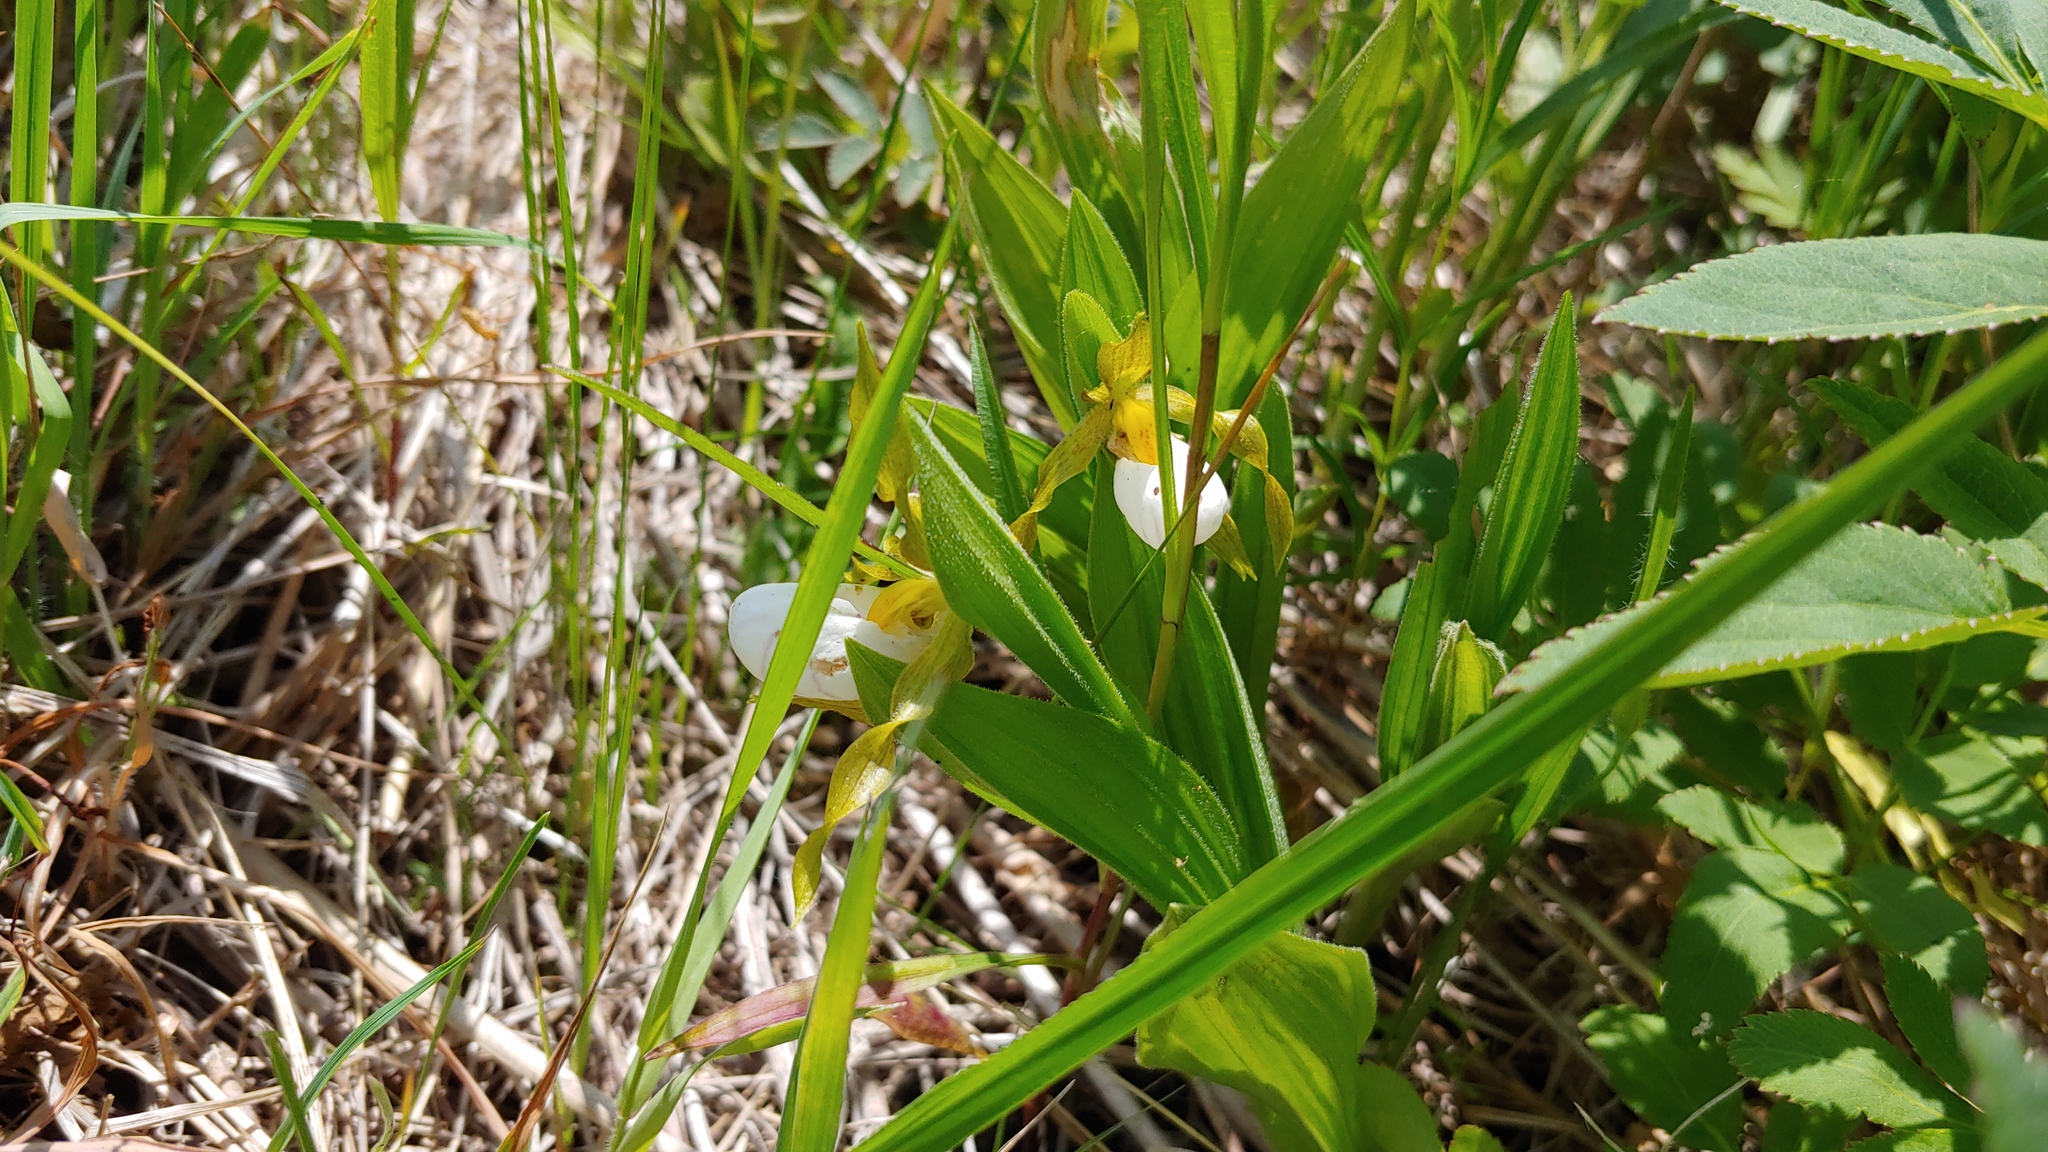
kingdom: Plantae
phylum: Tracheophyta
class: Liliopsida
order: Asparagales
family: Orchidaceae
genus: Cypripedium
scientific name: Cypripedium candidum
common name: White lady's-slipper
